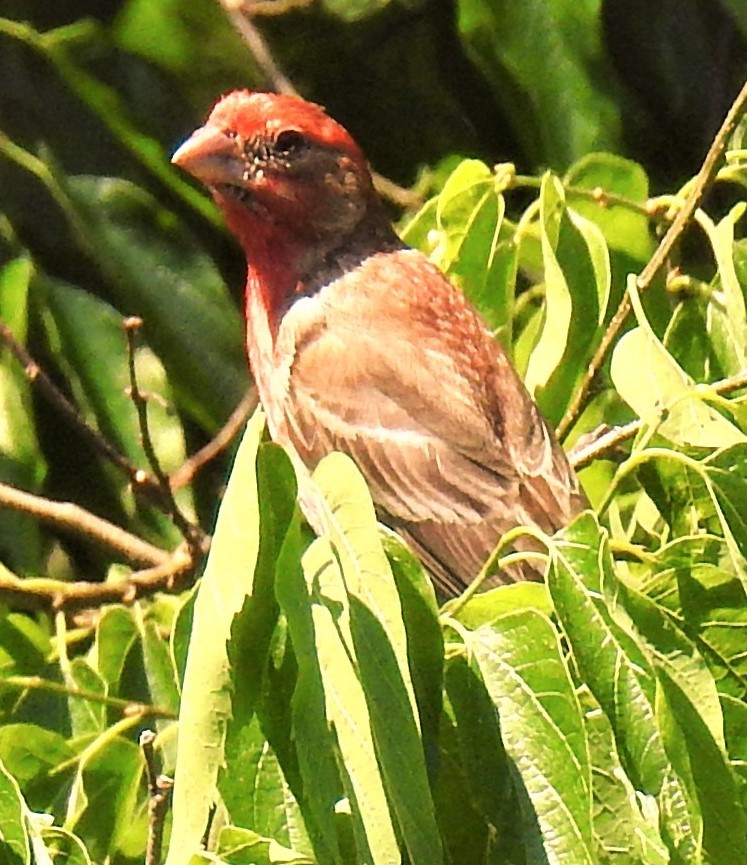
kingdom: Animalia
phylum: Chordata
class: Aves
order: Passeriformes
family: Fringillidae
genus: Haemorhous
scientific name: Haemorhous mexicanus
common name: House finch
